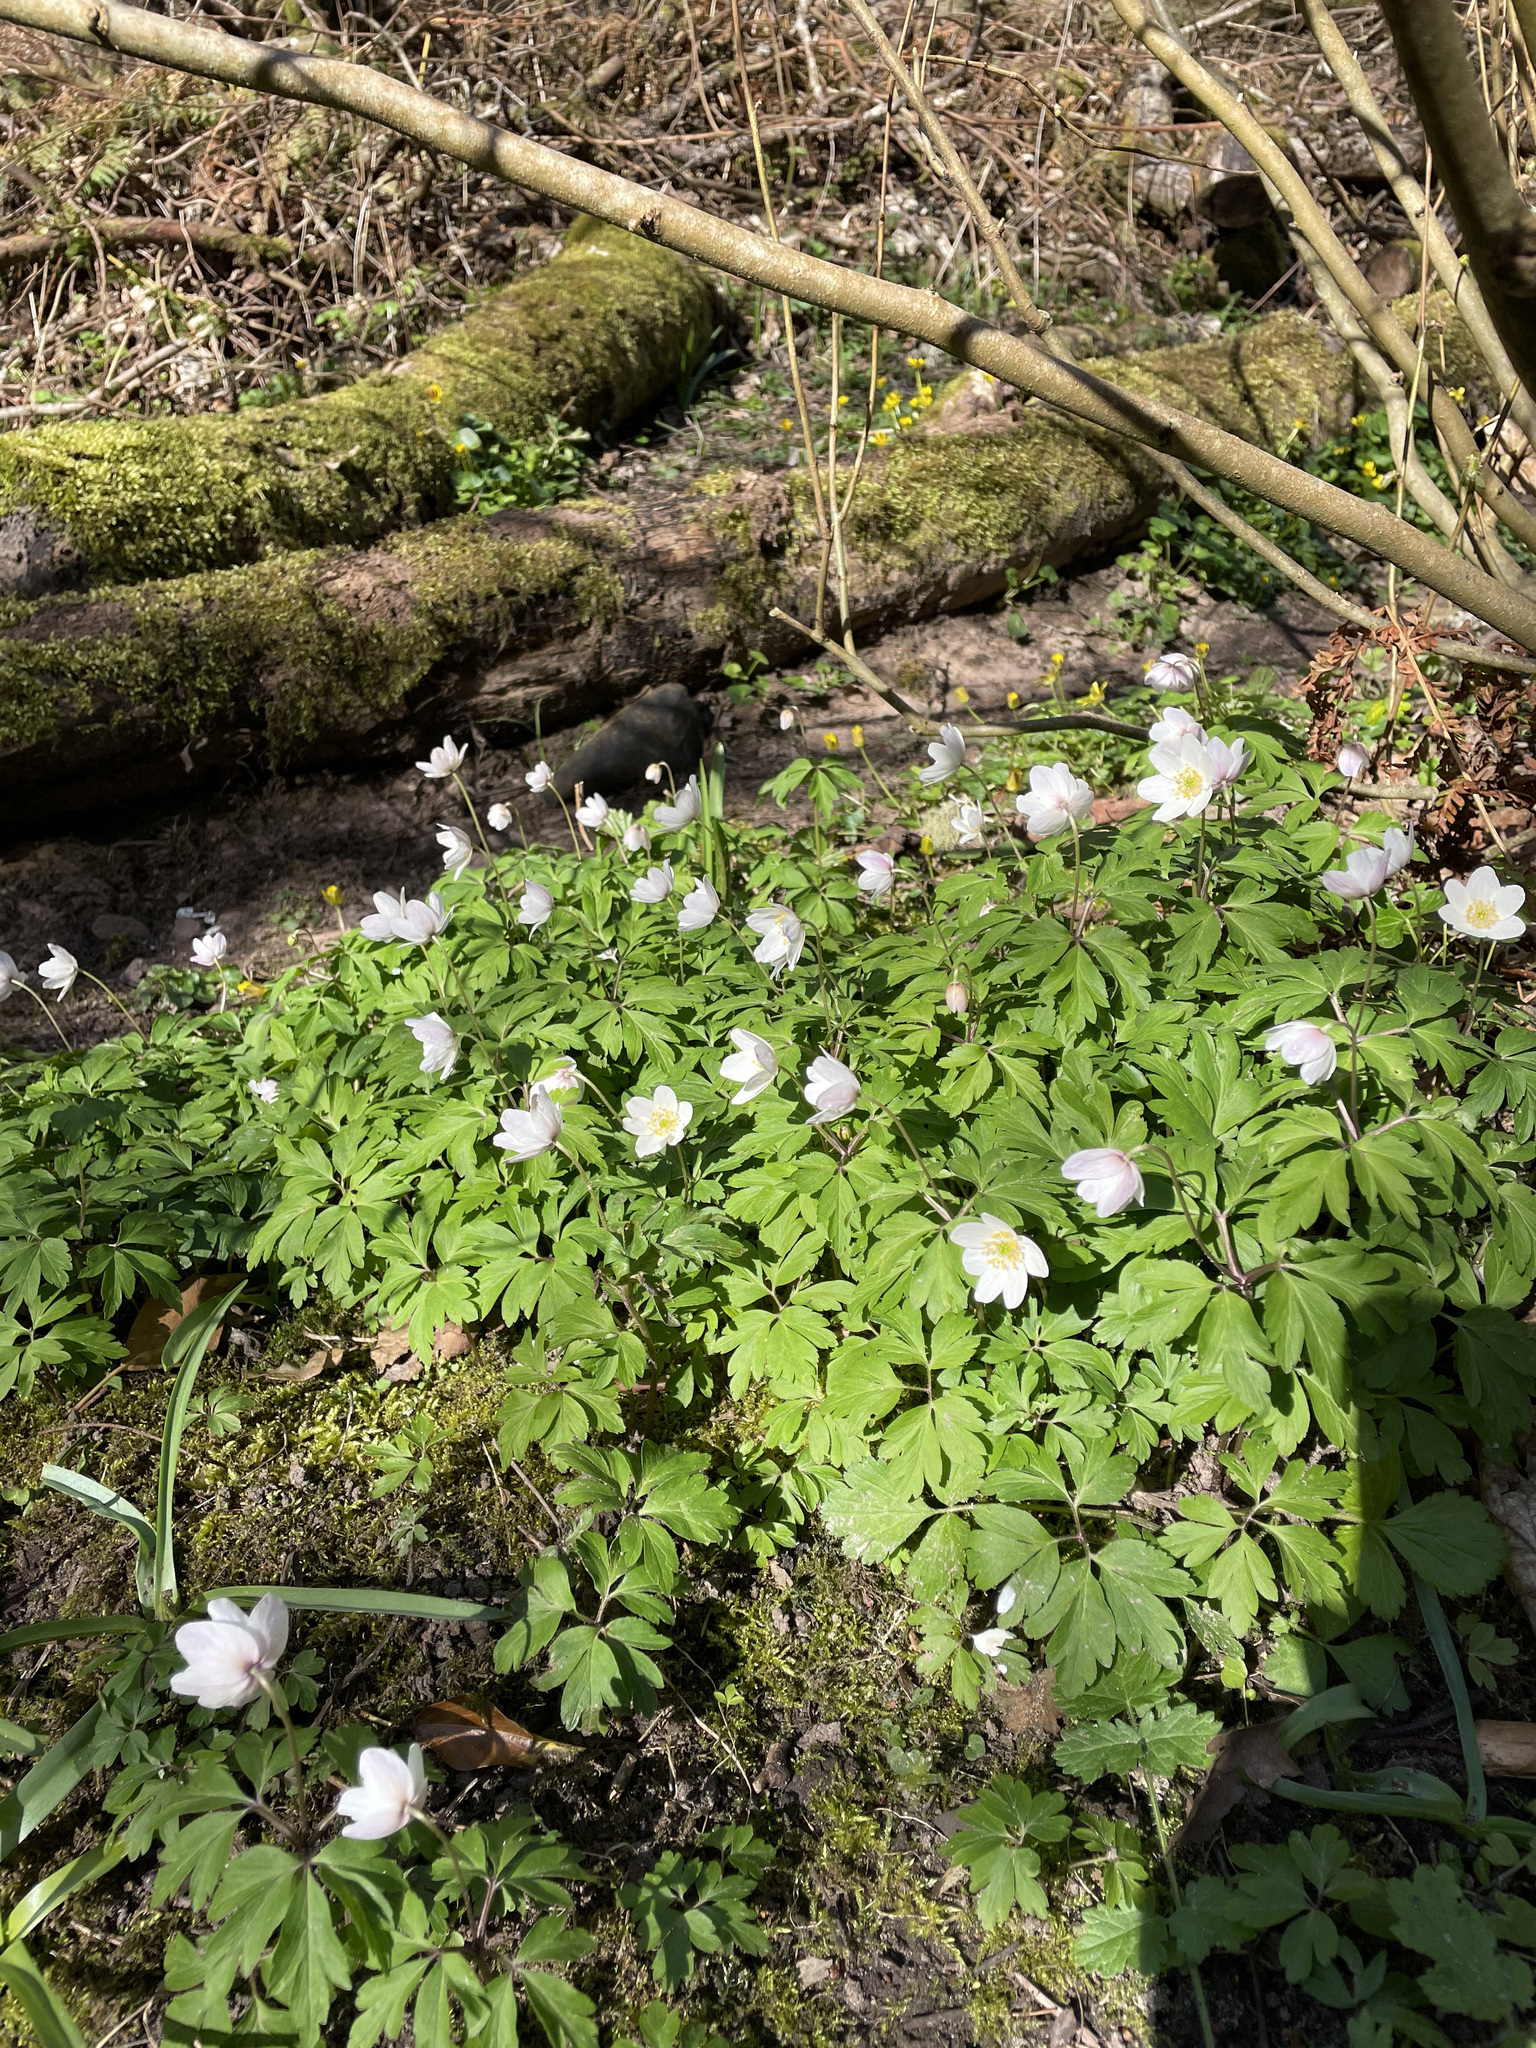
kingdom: Plantae
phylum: Tracheophyta
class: Magnoliopsida
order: Ranunculales
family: Ranunculaceae
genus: Anemone
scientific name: Anemone nemorosa
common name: Wood anemone
